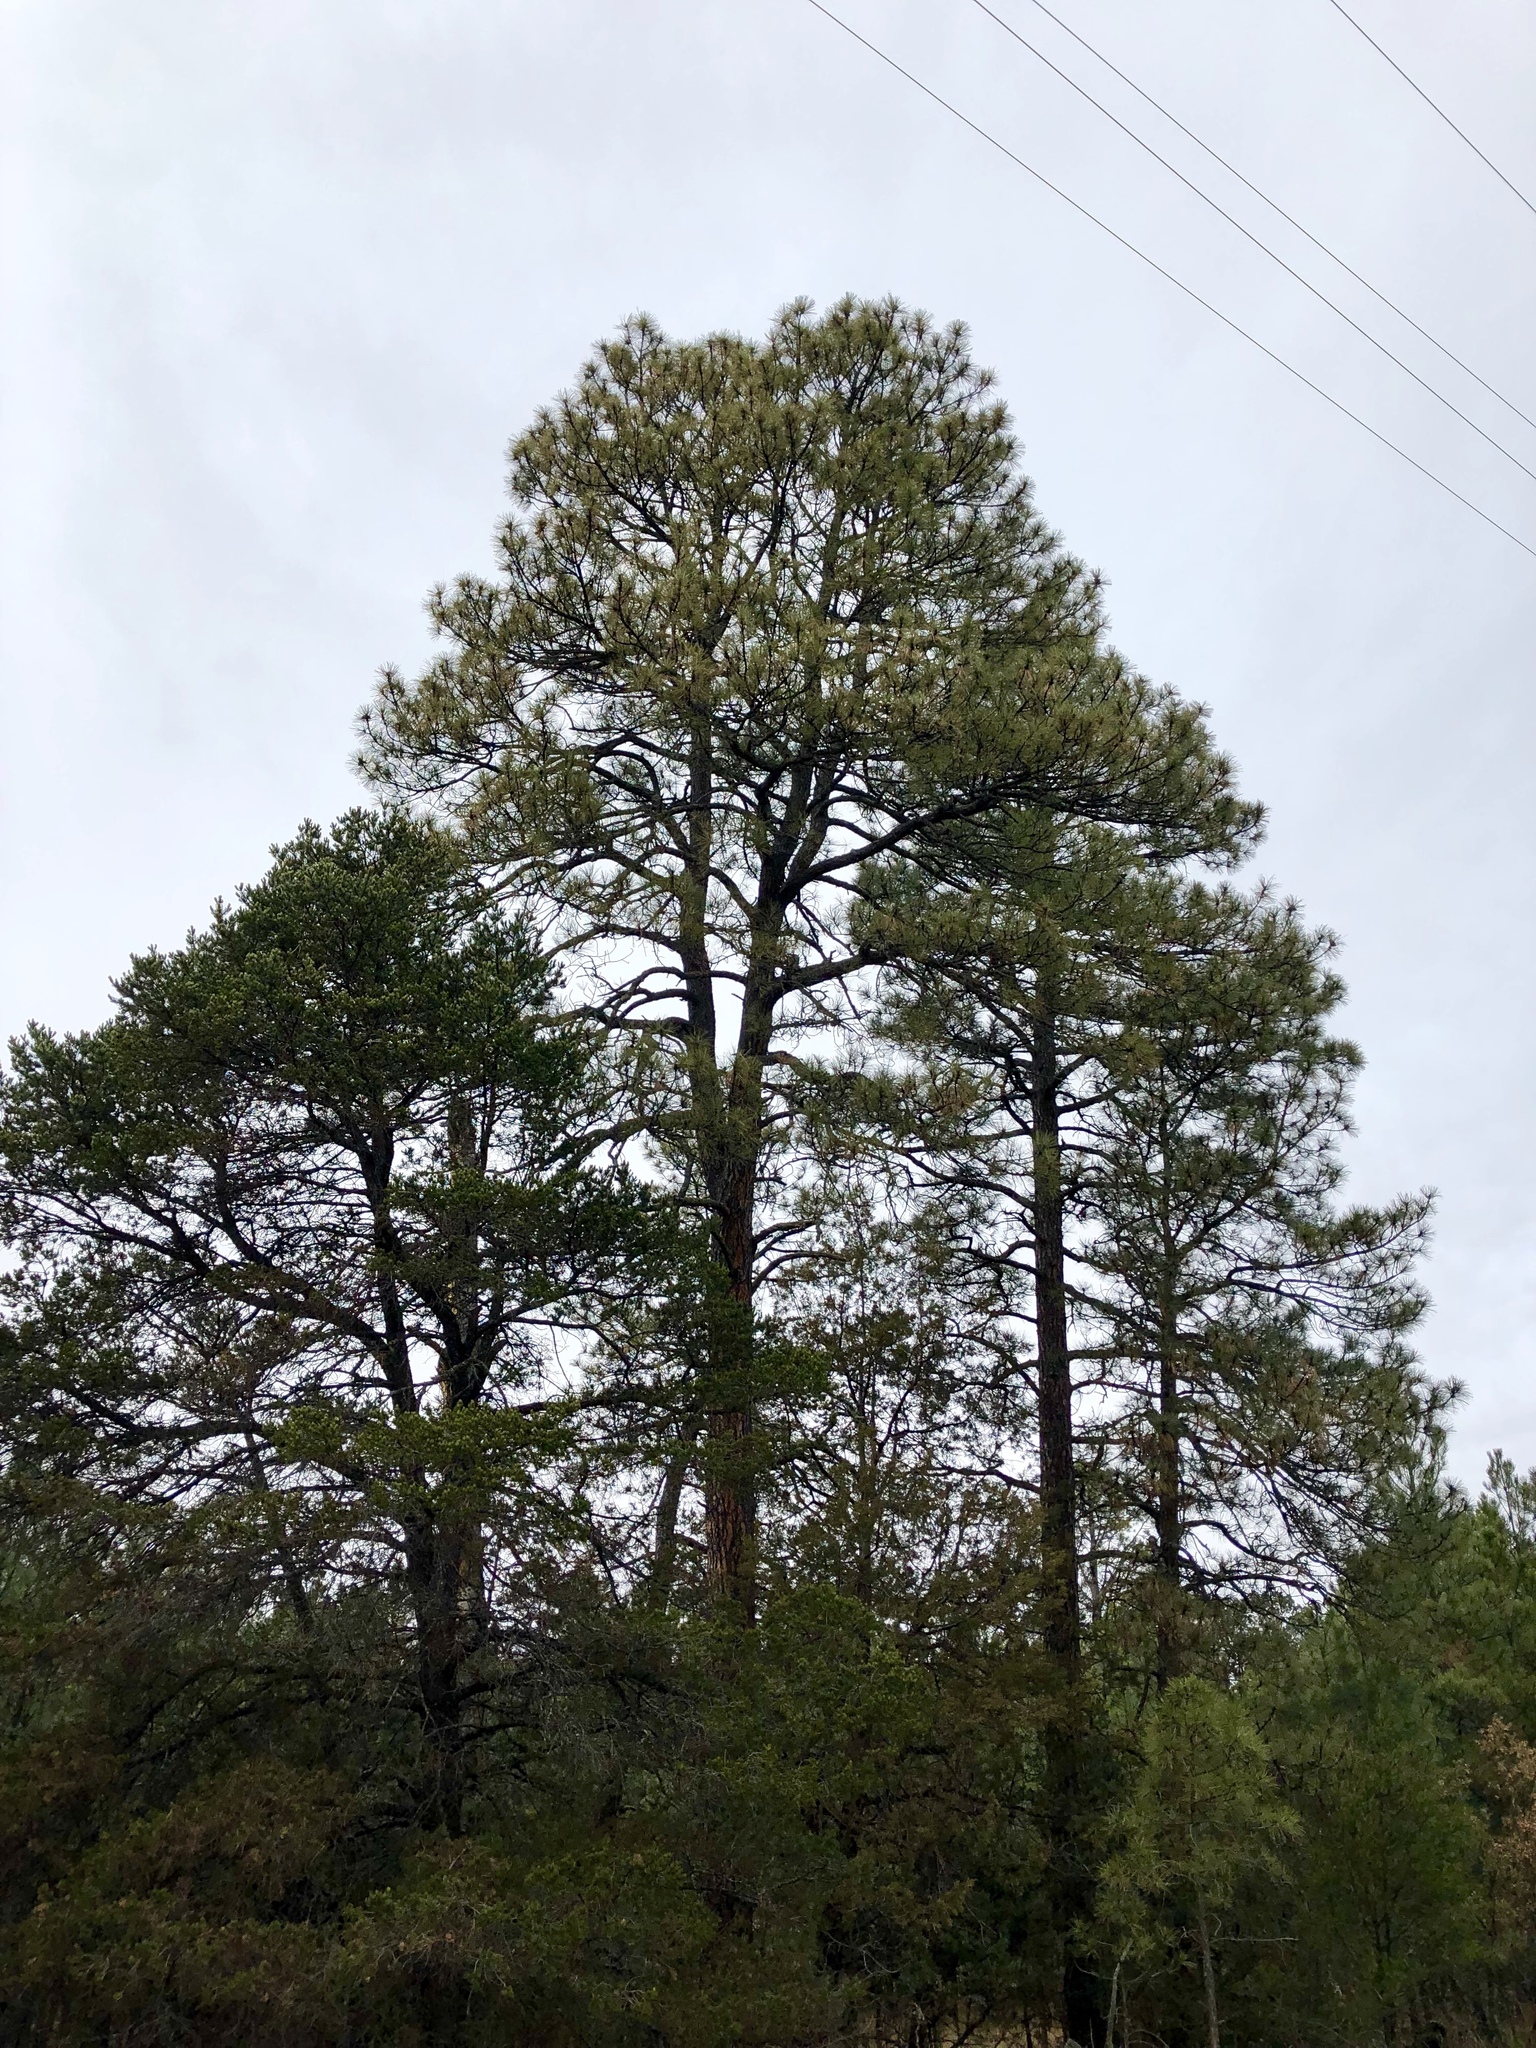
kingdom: Plantae
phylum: Tracheophyta
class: Pinopsida
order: Pinales
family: Pinaceae
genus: Pinus
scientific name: Pinus ponderosa
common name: Western yellow-pine
